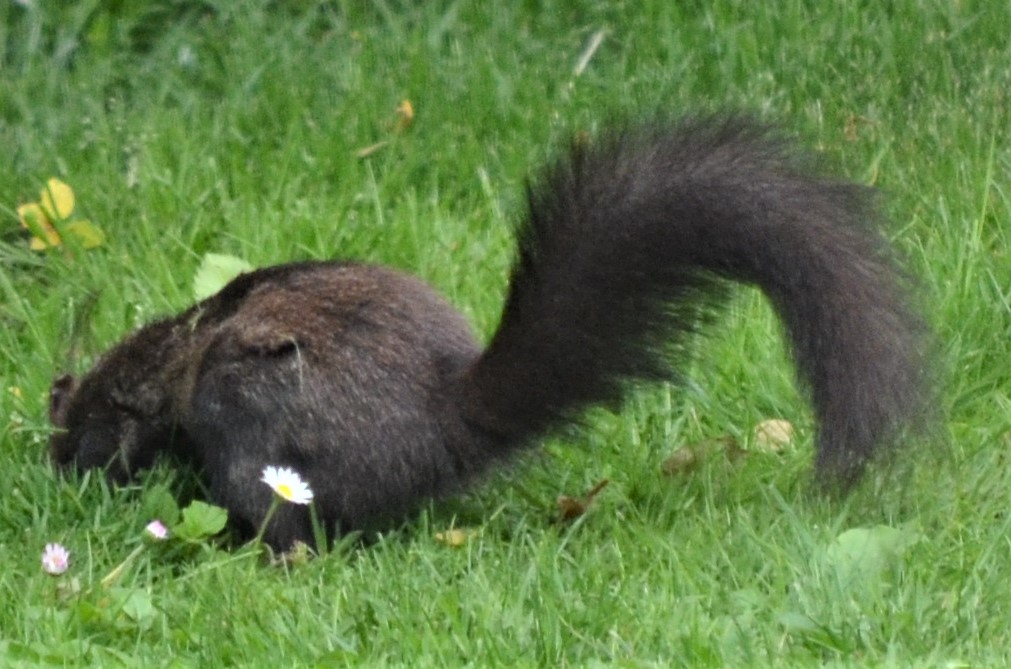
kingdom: Animalia
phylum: Chordata
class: Mammalia
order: Rodentia
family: Sciuridae
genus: Sciurus
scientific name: Sciurus vulgaris
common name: Eurasian red squirrel
